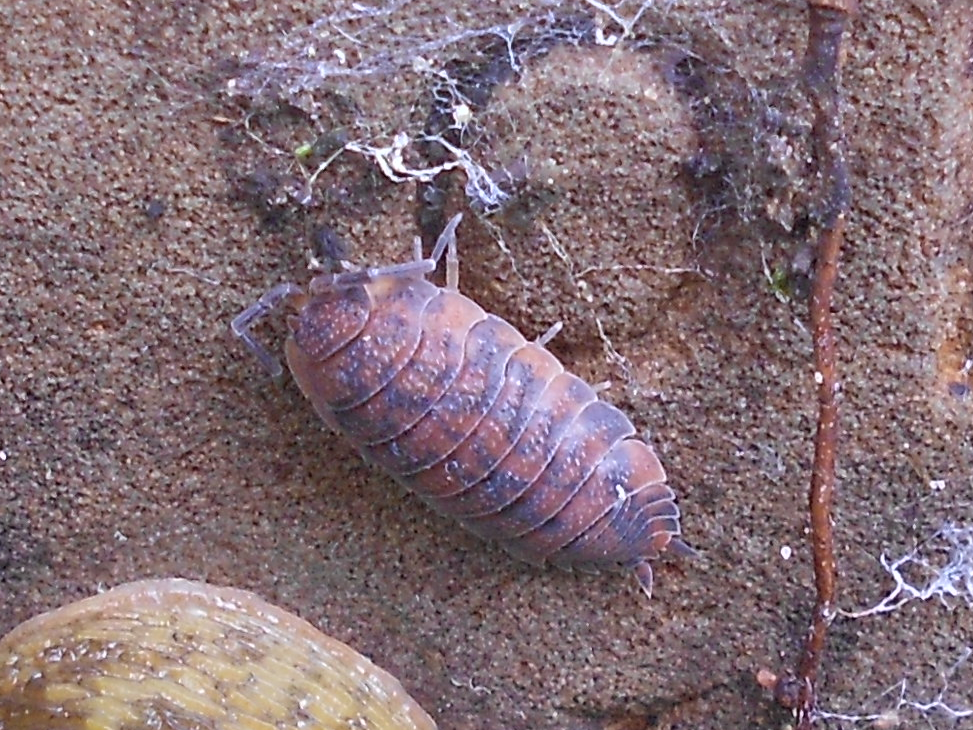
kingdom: Animalia
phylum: Arthropoda
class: Malacostraca
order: Isopoda
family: Porcellionidae
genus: Porcellio
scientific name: Porcellio scaber
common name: Common rough woodlouse
